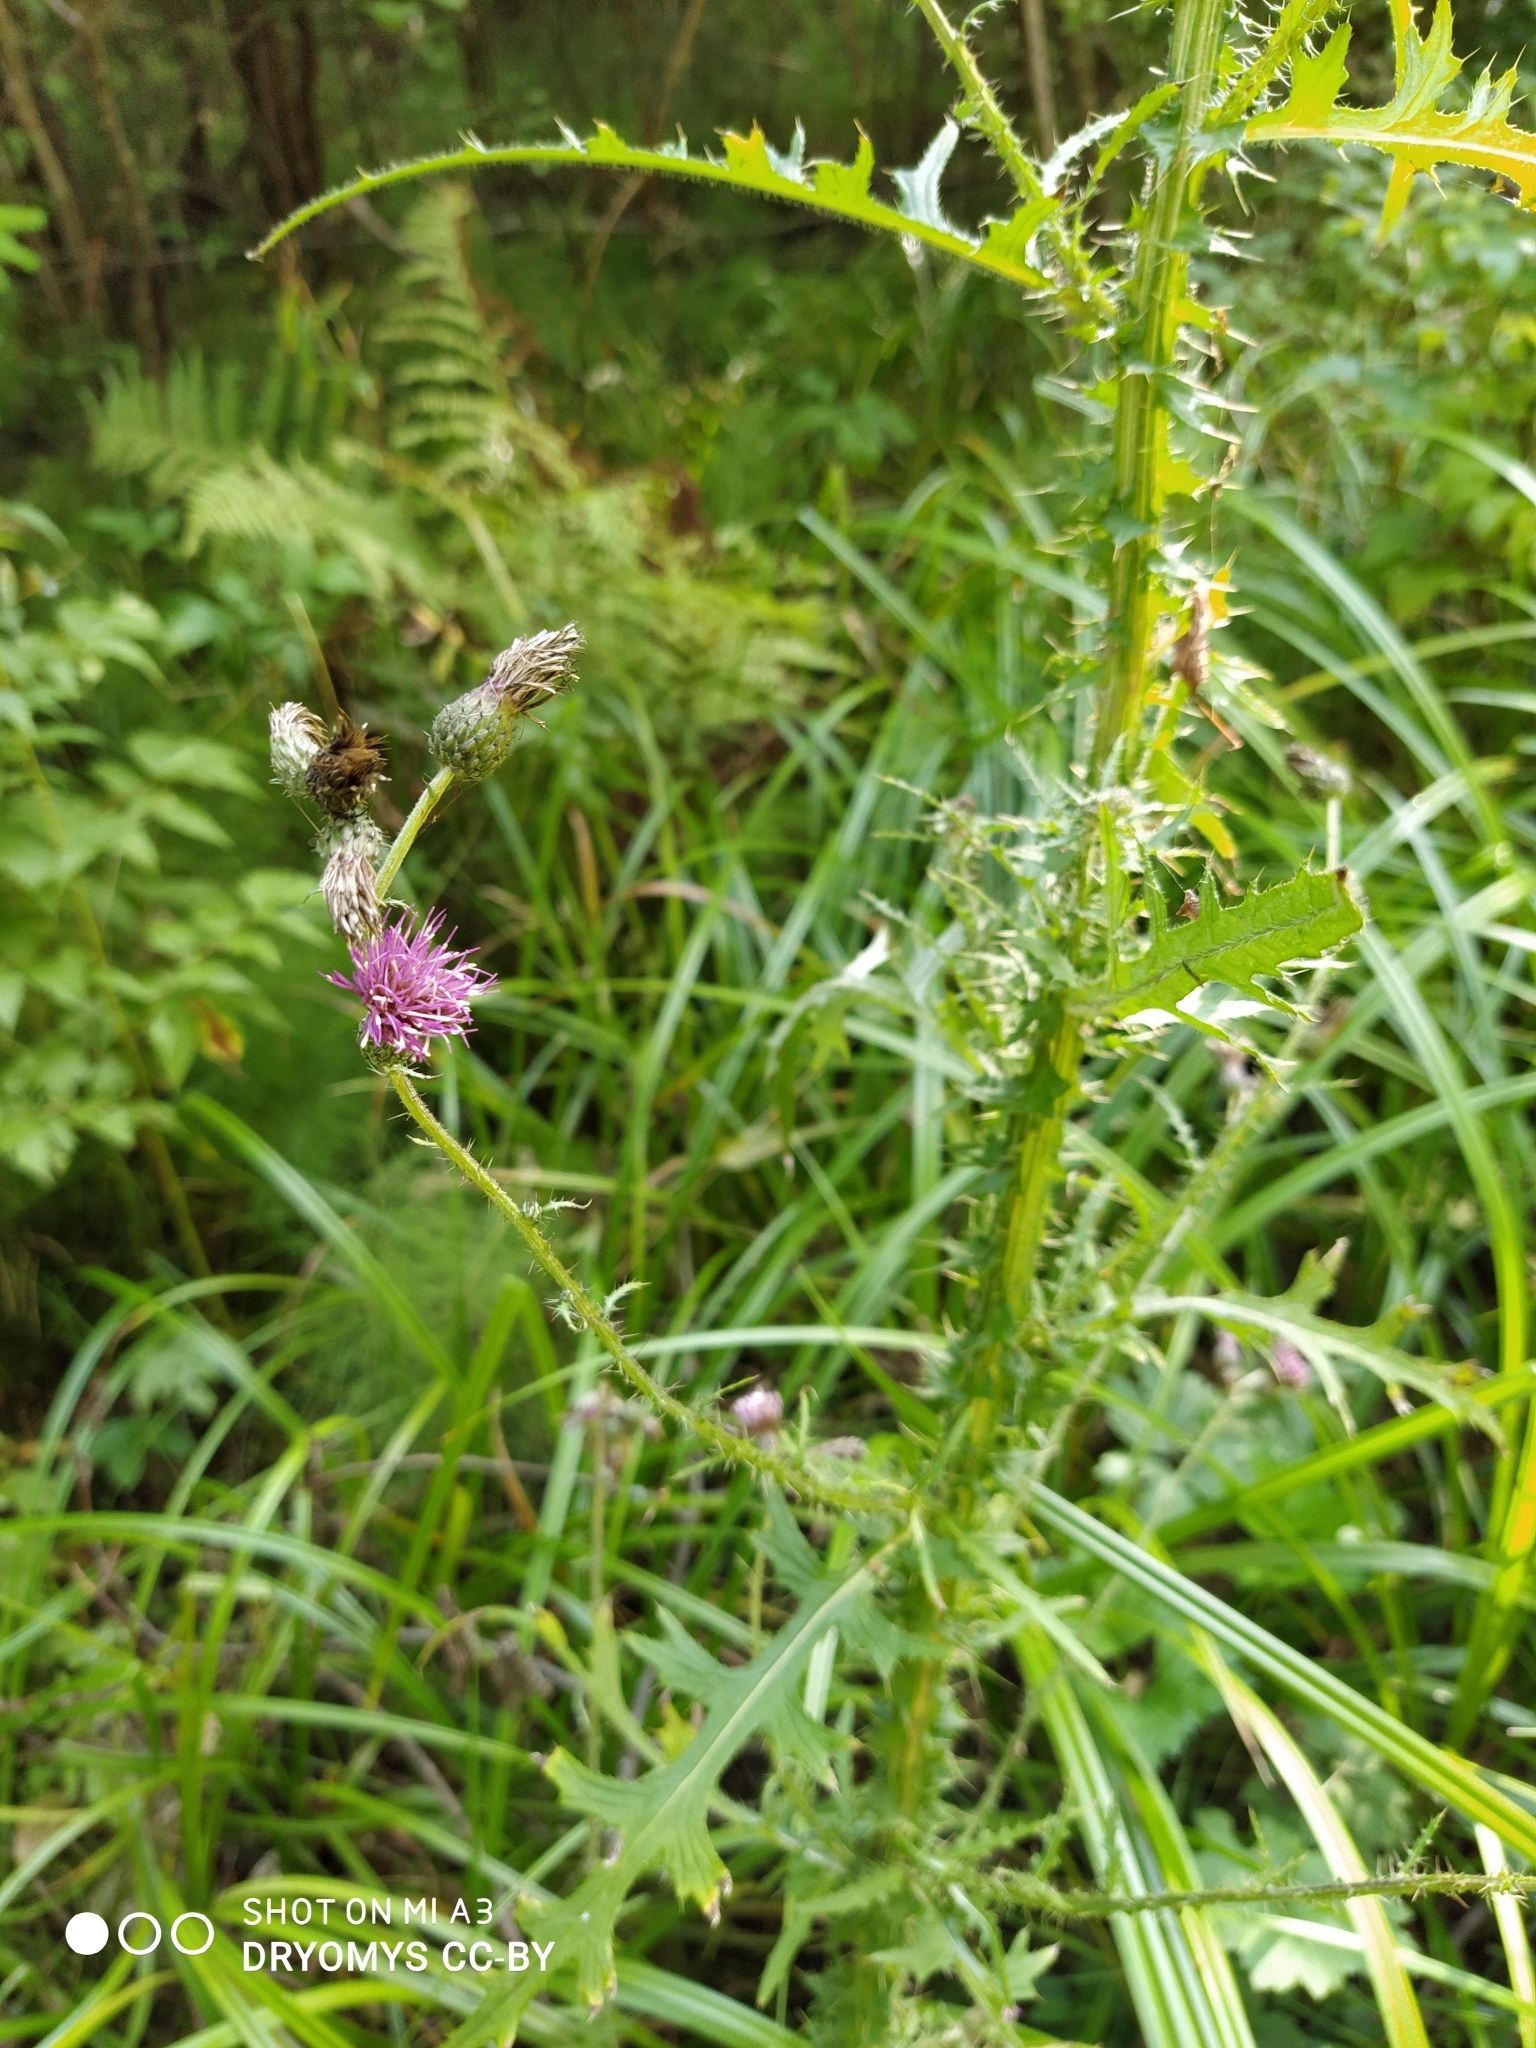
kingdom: Plantae
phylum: Tracheophyta
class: Magnoliopsida
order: Asterales
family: Asteraceae
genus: Cirsium
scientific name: Cirsium palustre
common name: Marsh thistle
